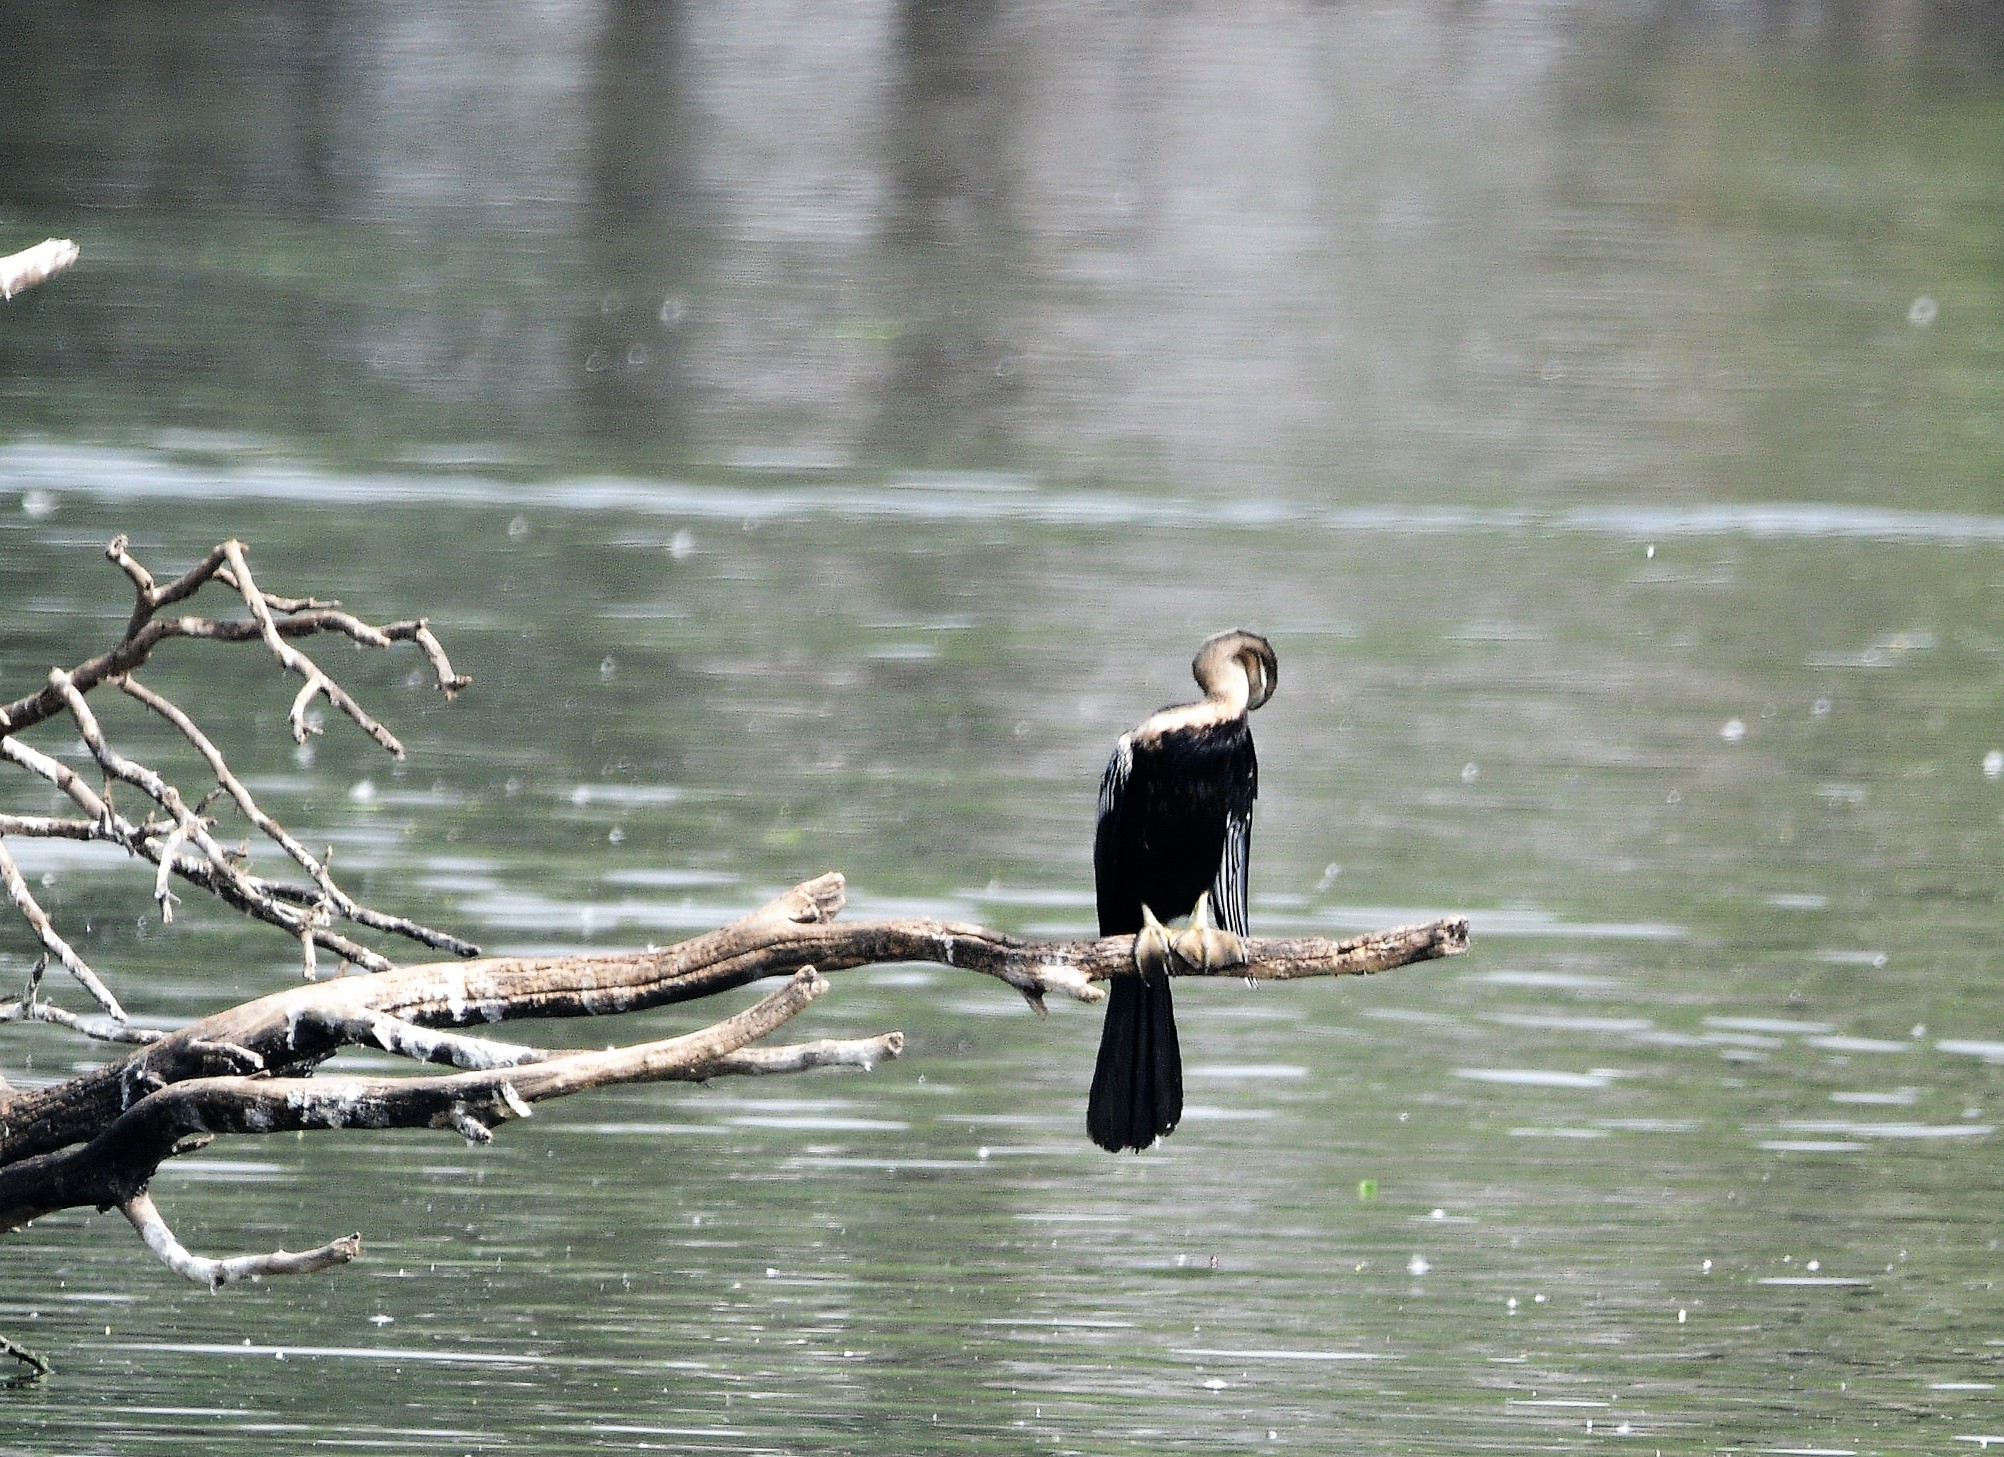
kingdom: Animalia
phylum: Chordata
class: Aves
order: Suliformes
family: Anhingidae
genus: Anhinga
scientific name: Anhinga melanogaster
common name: Oriental darter
